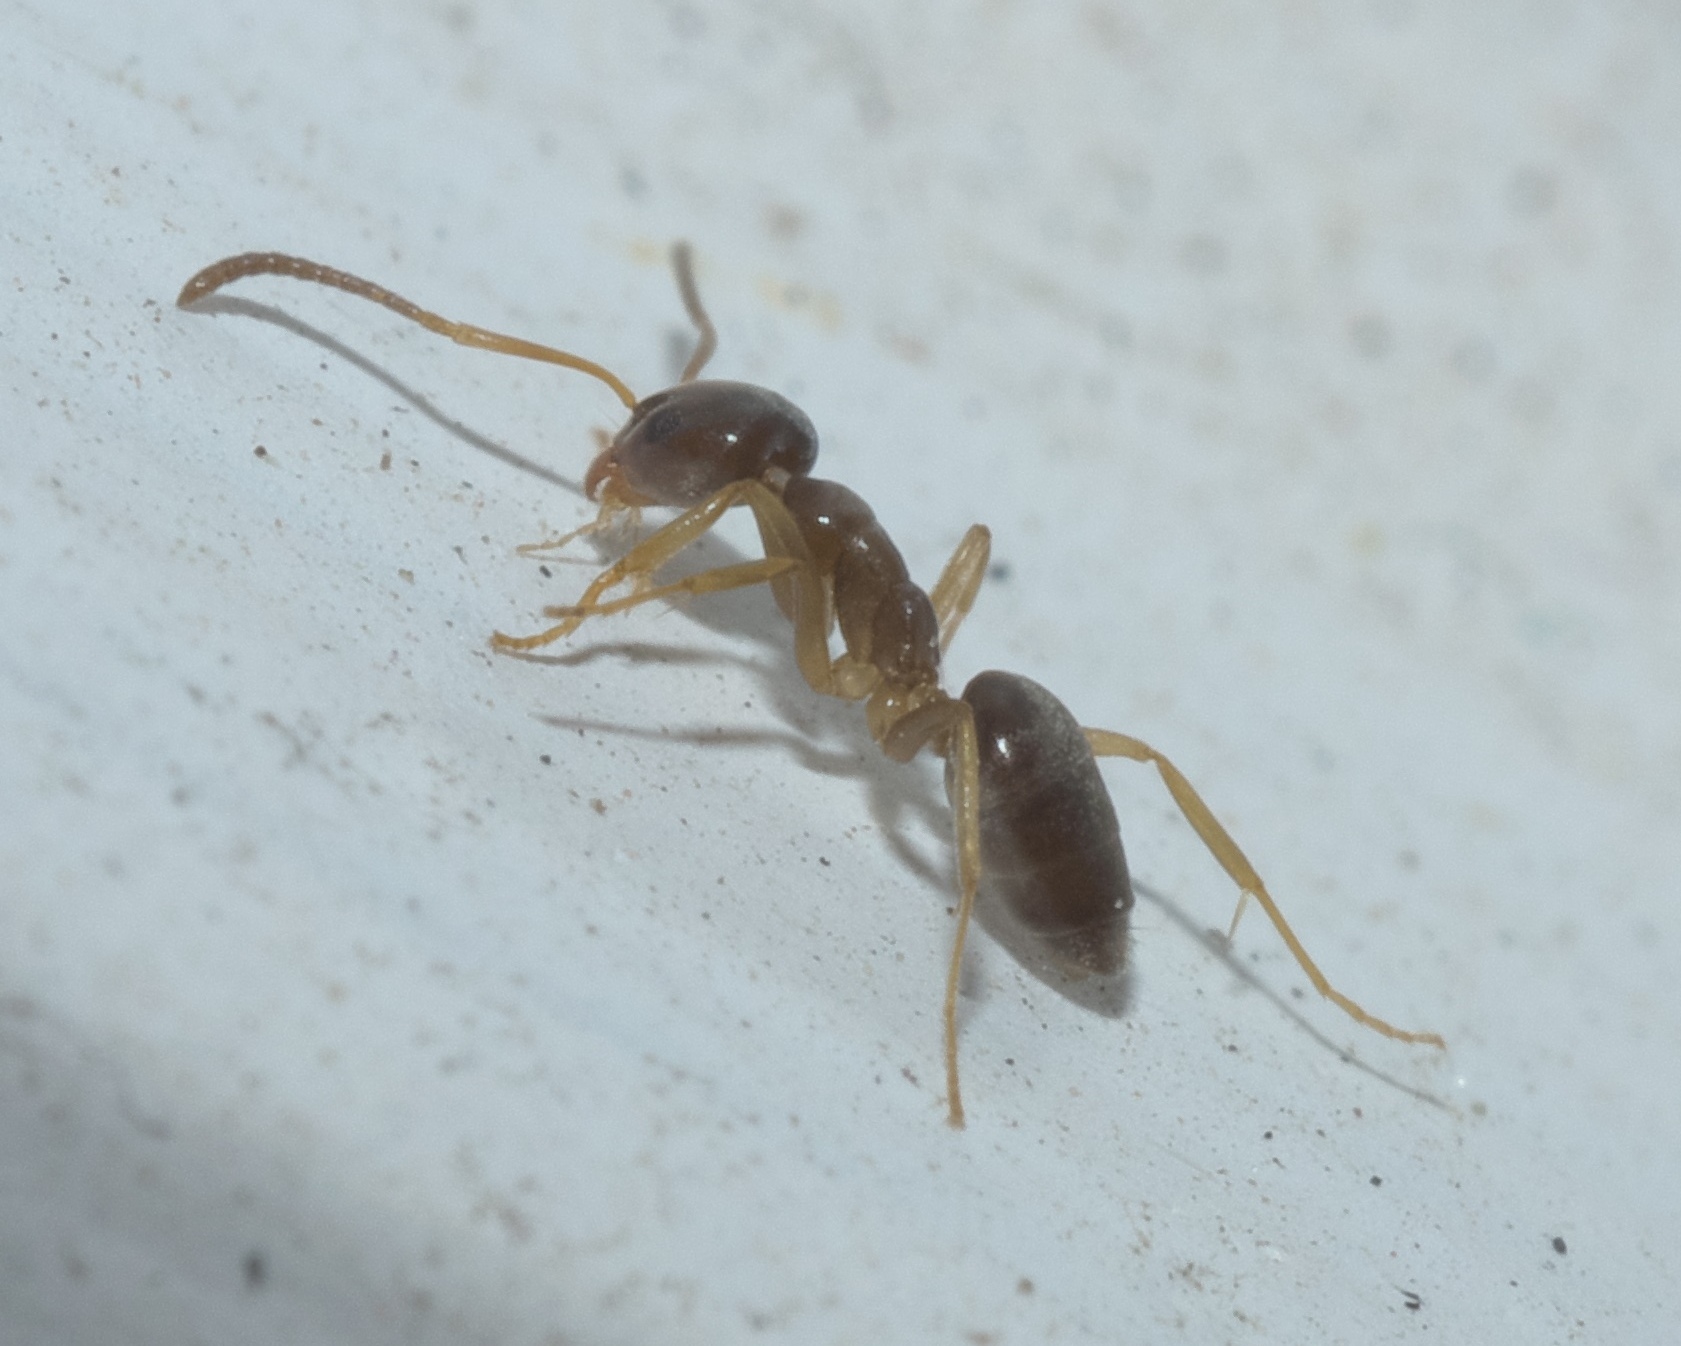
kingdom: Animalia
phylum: Arthropoda
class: Insecta
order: Hymenoptera
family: Formicidae
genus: Tapinoma
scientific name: Tapinoma sessile
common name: Odorous house ant
